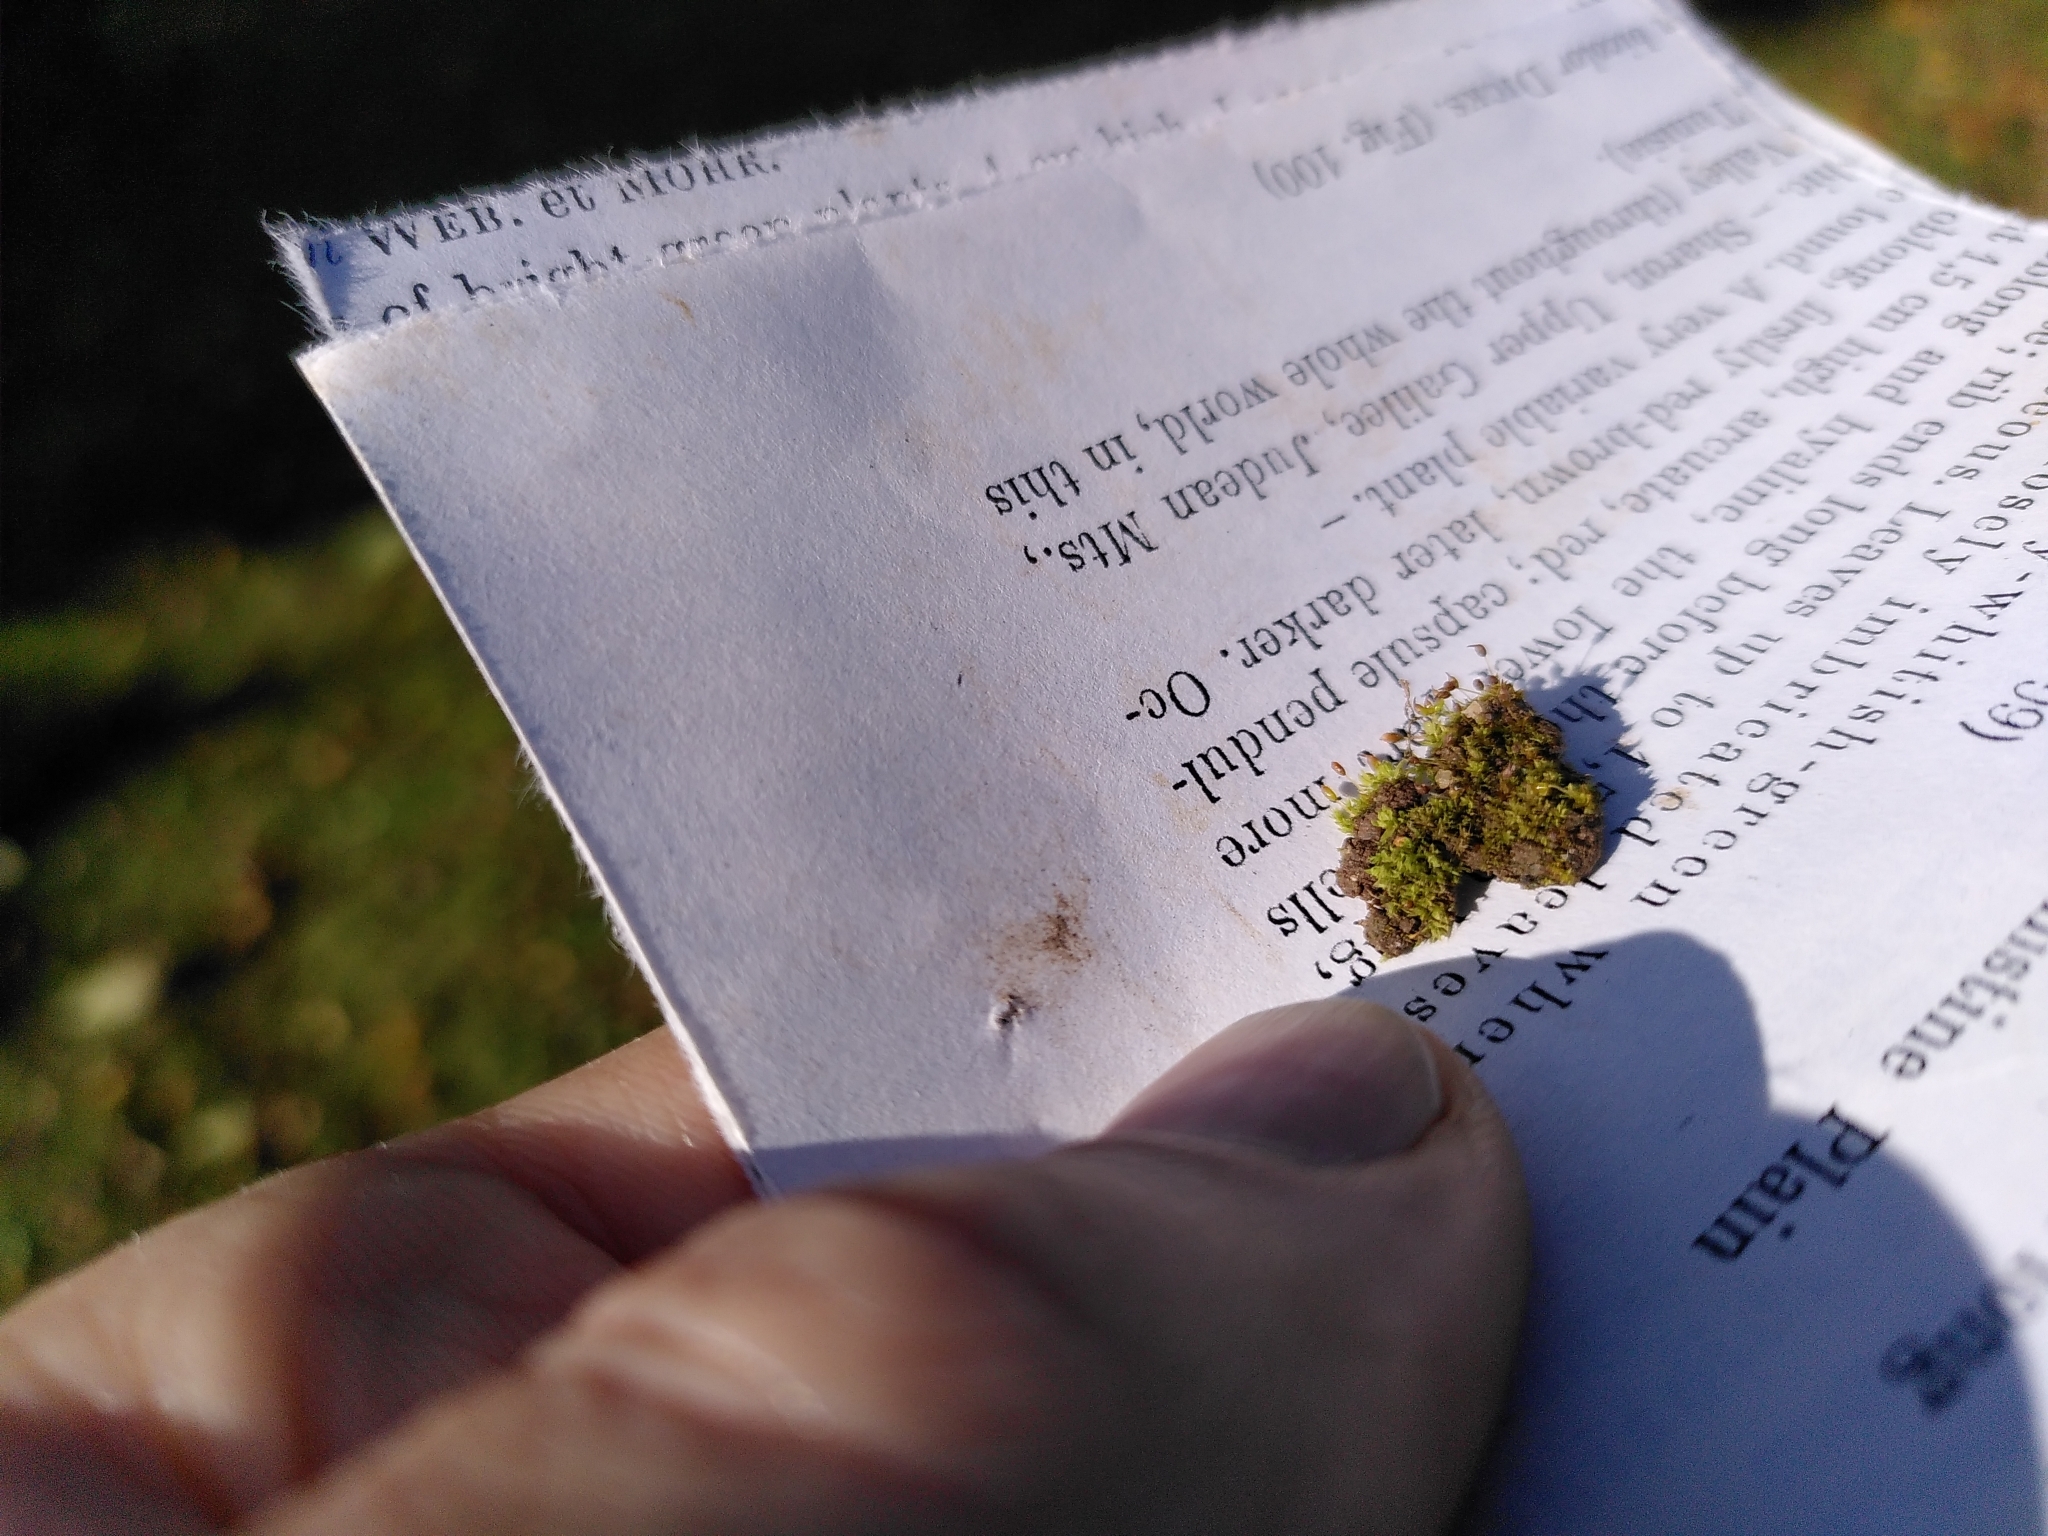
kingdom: Plantae
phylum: Bryophyta
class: Bryopsida
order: Pottiales
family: Pottiaceae
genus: Microbryum
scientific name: Microbryum davallianum
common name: Smallest pottia
